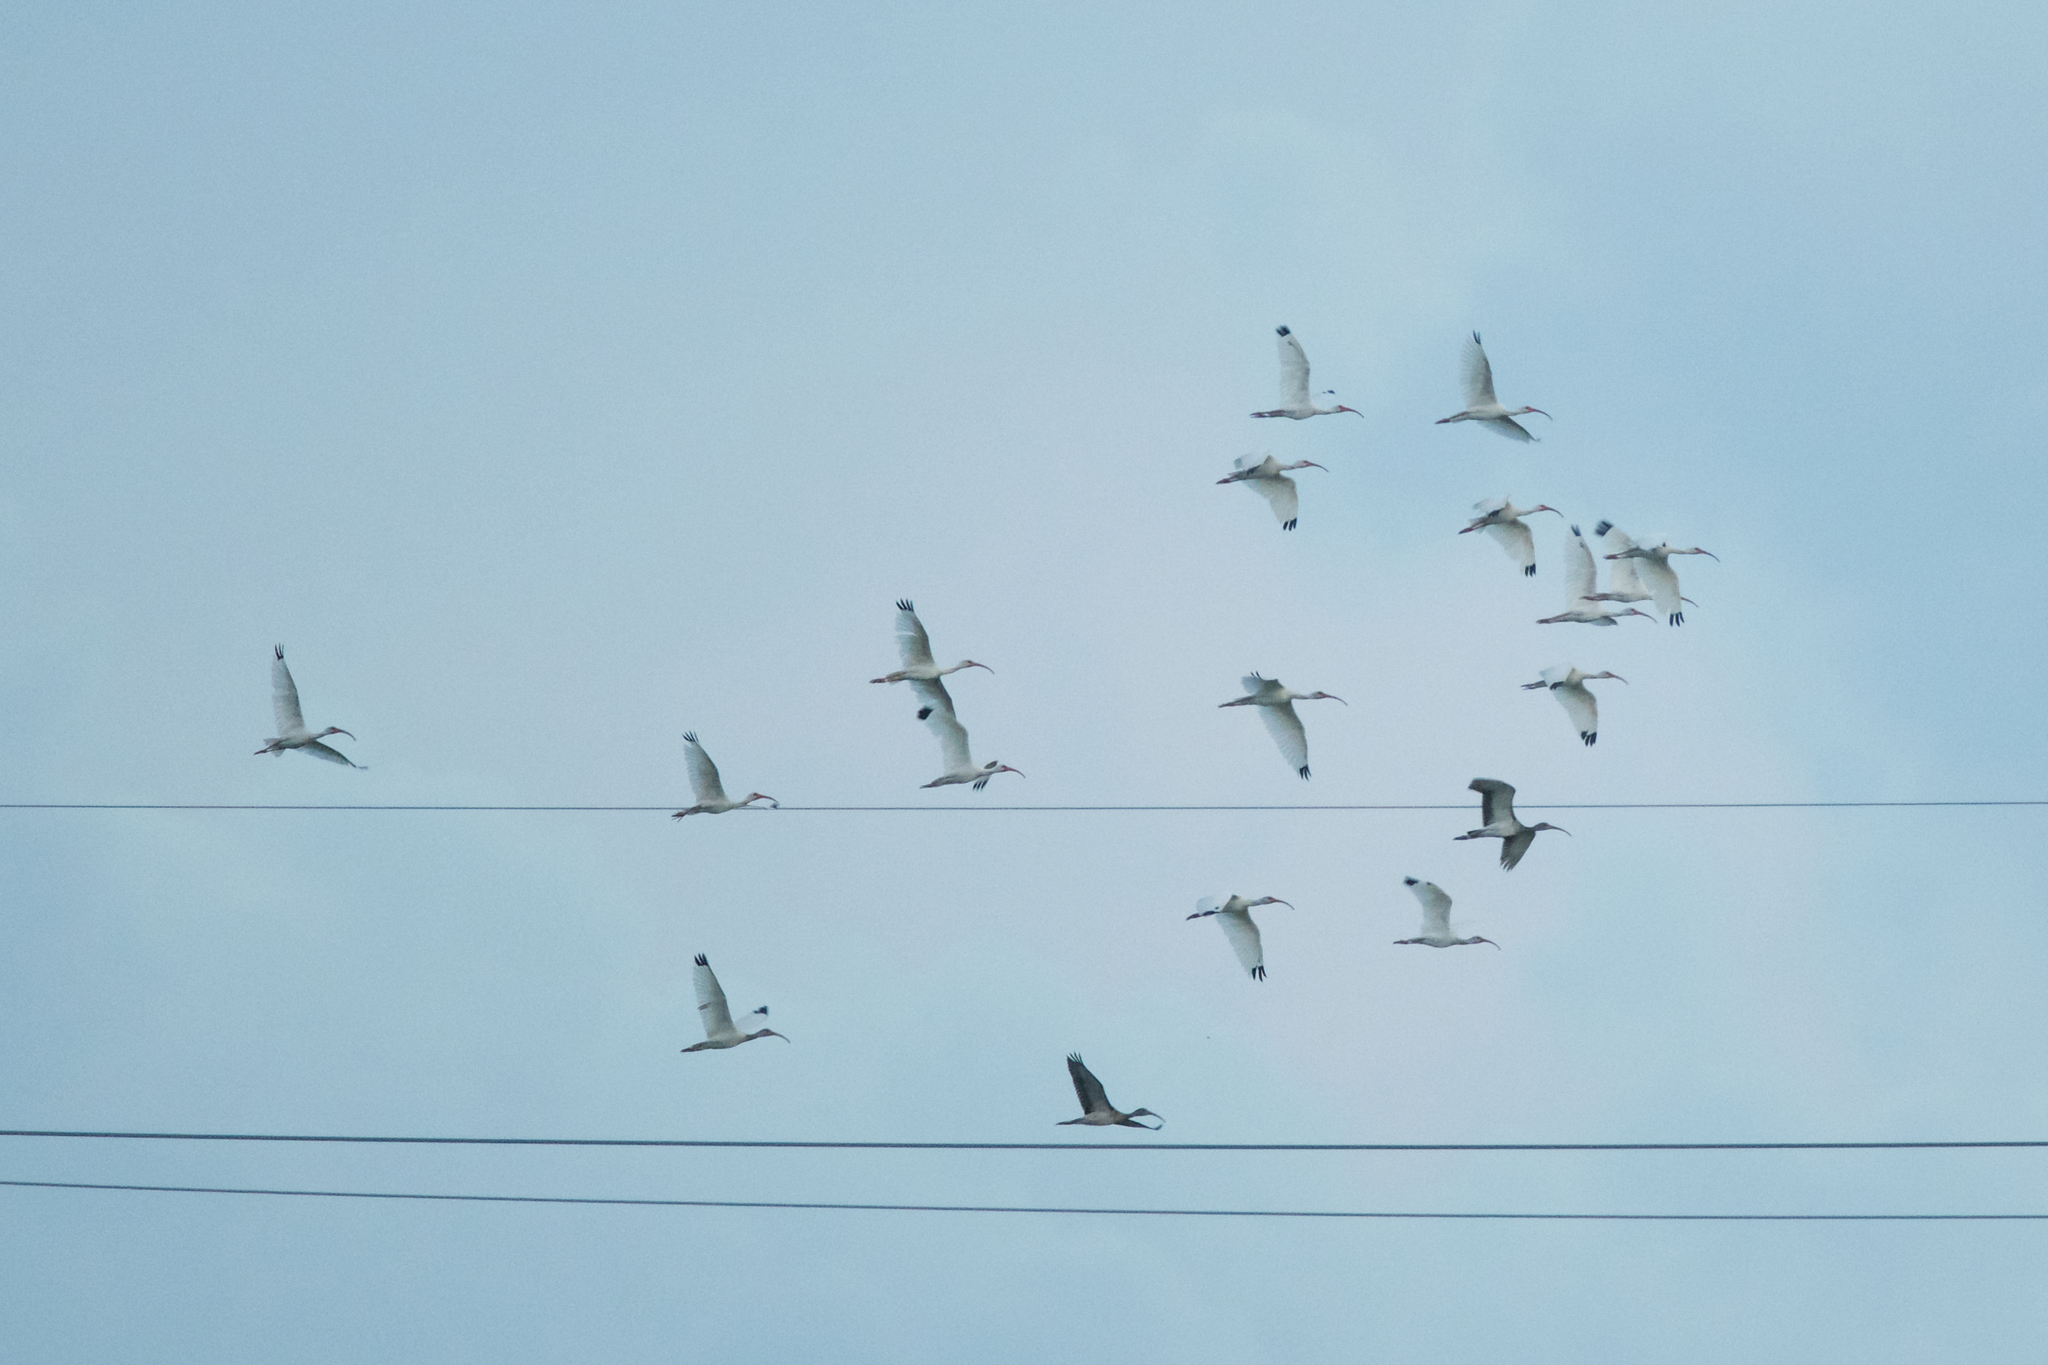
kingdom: Animalia
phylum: Chordata
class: Aves
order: Pelecaniformes
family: Threskiornithidae
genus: Eudocimus
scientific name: Eudocimus albus
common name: White ibis
